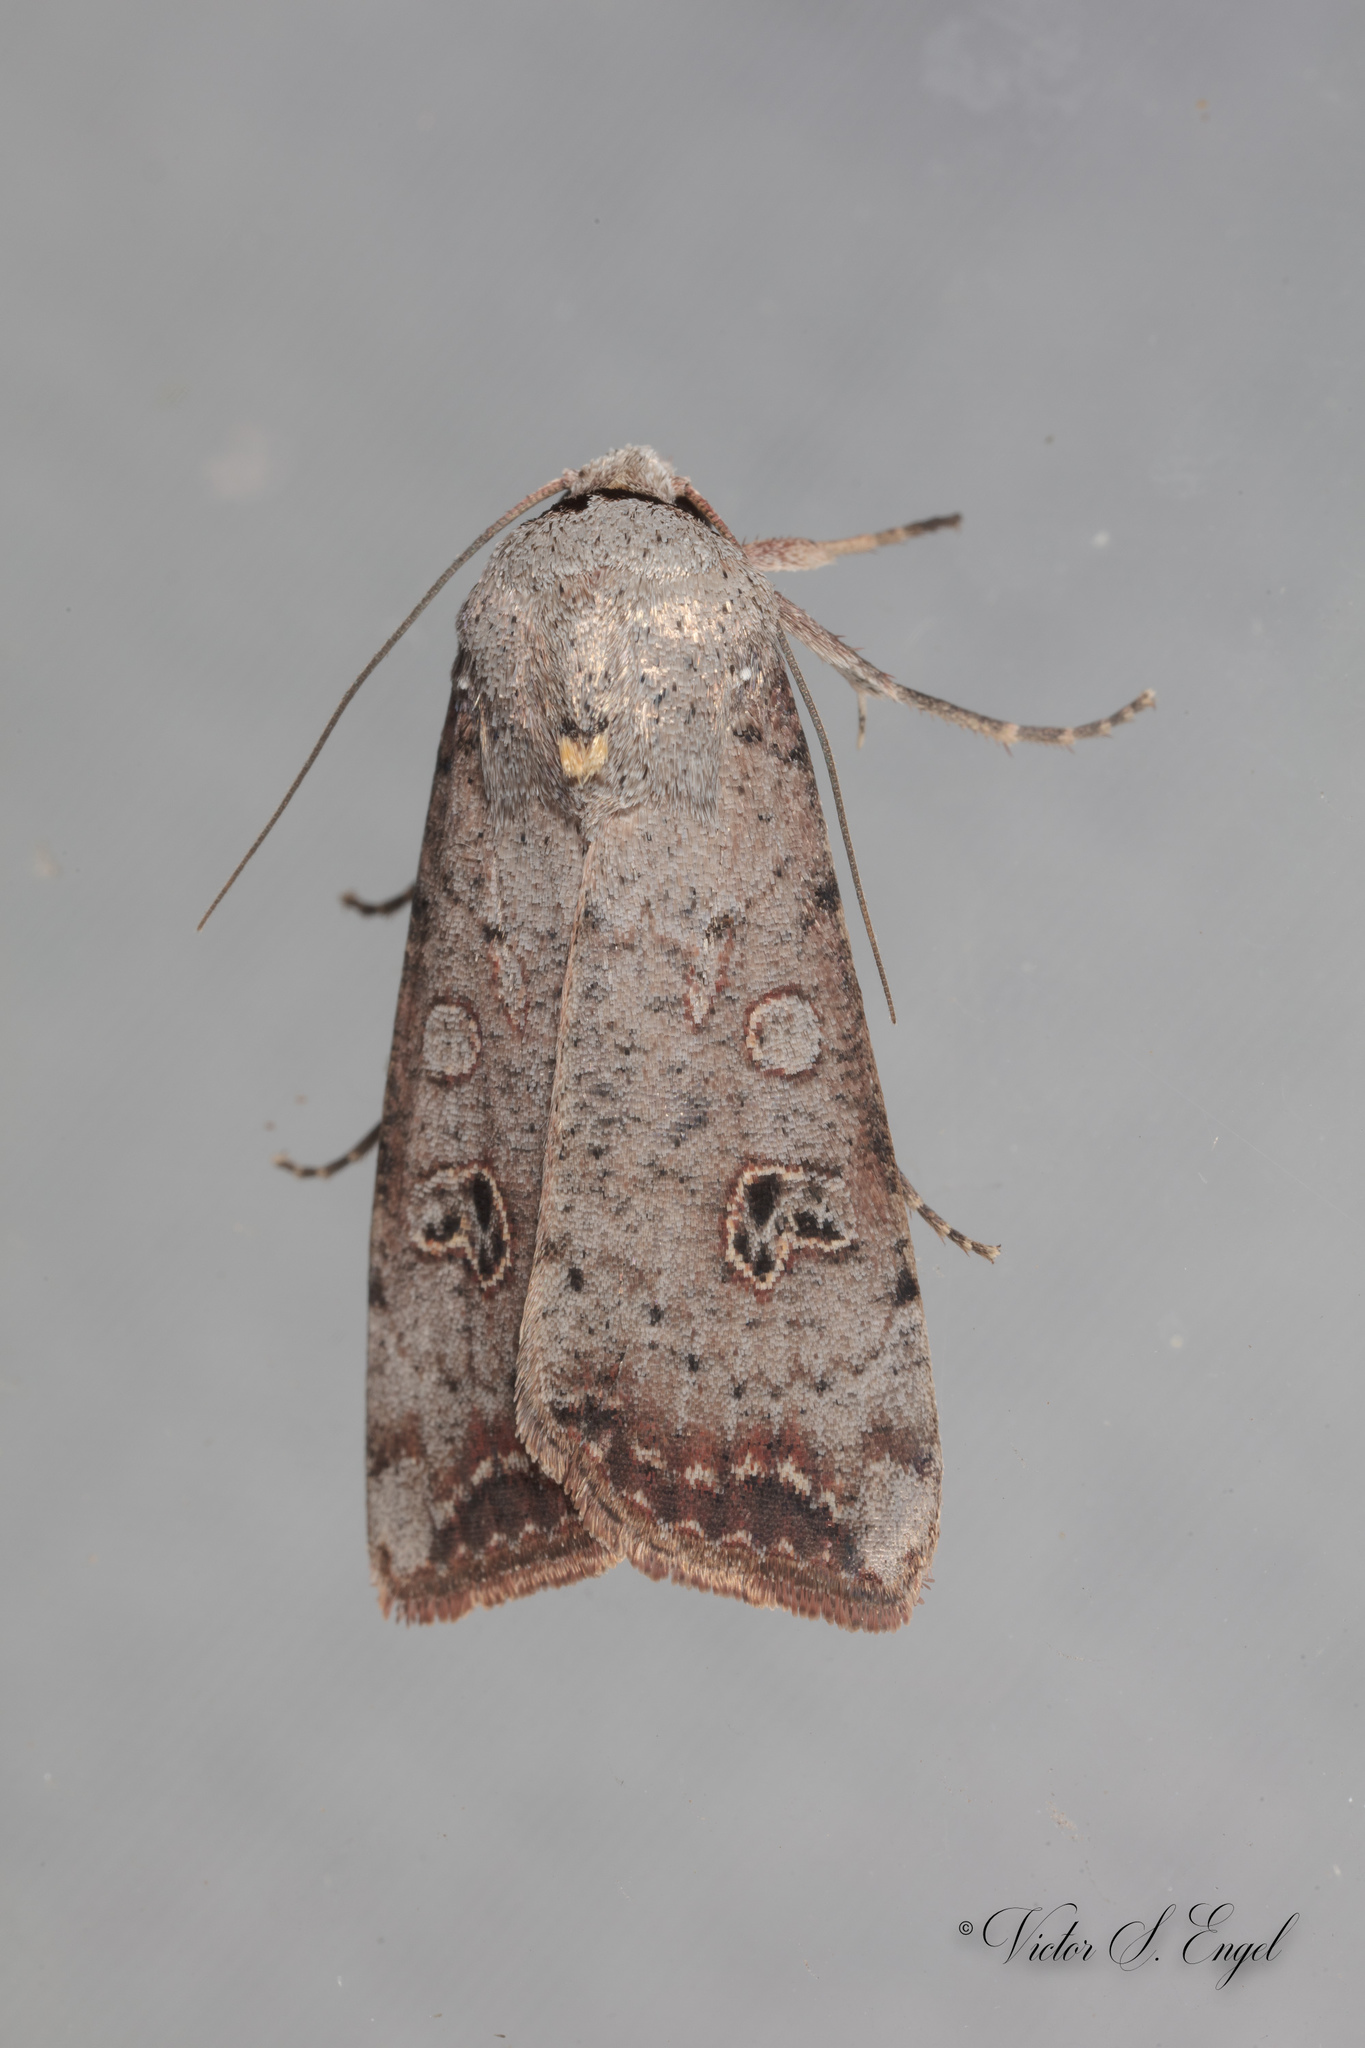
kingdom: Animalia
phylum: Arthropoda
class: Insecta
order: Lepidoptera
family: Noctuidae
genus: Anicla
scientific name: Anicla infecta
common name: Green cutworm
